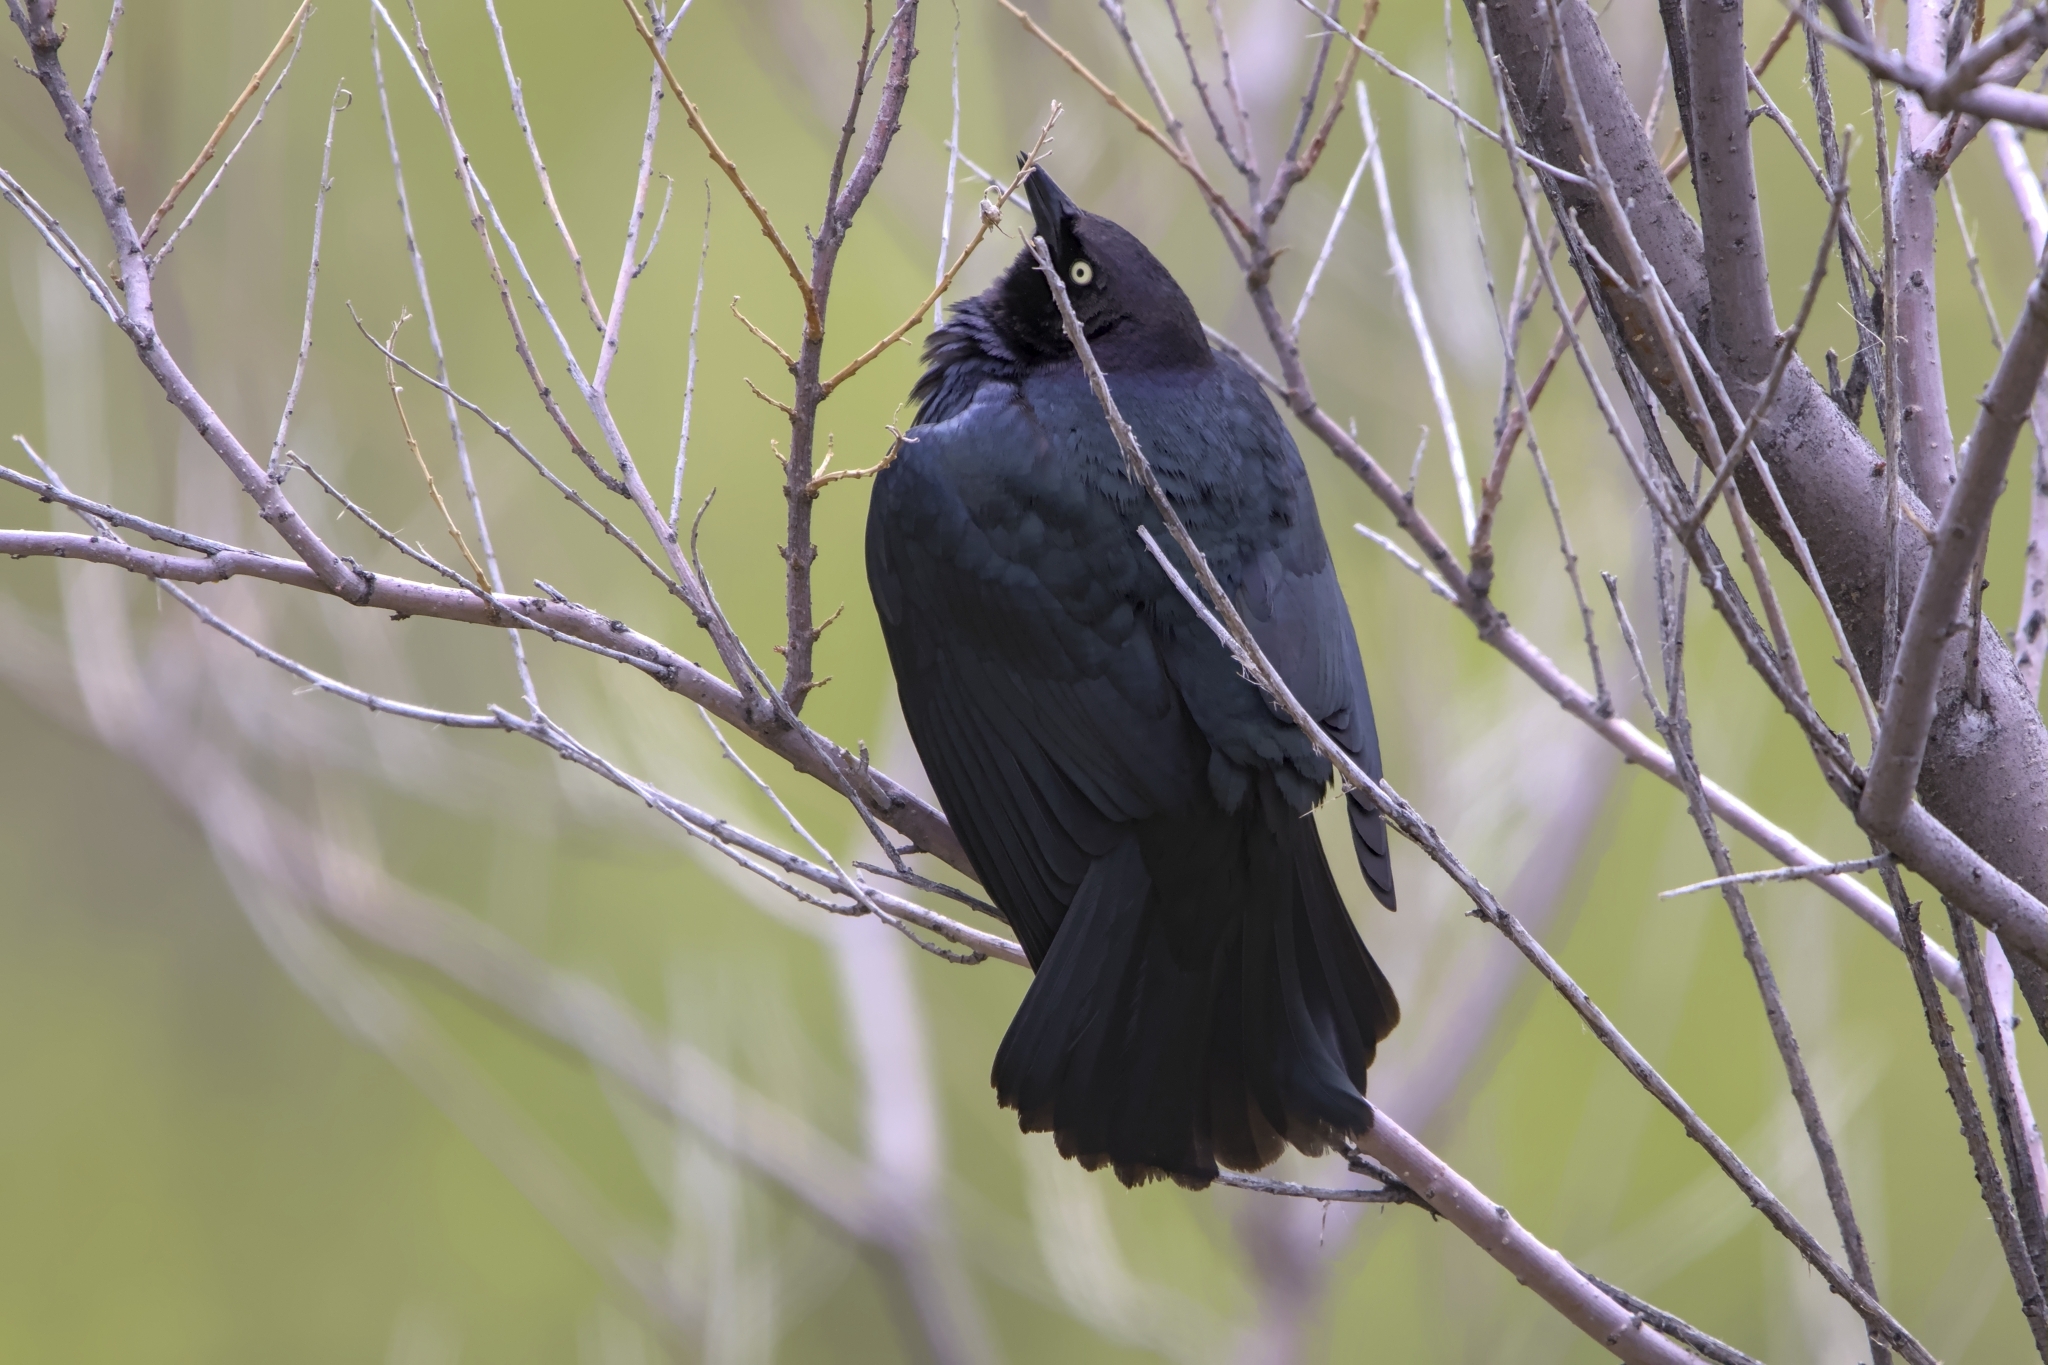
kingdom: Animalia
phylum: Chordata
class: Aves
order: Passeriformes
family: Icteridae
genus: Euphagus
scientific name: Euphagus cyanocephalus
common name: Brewer's blackbird
